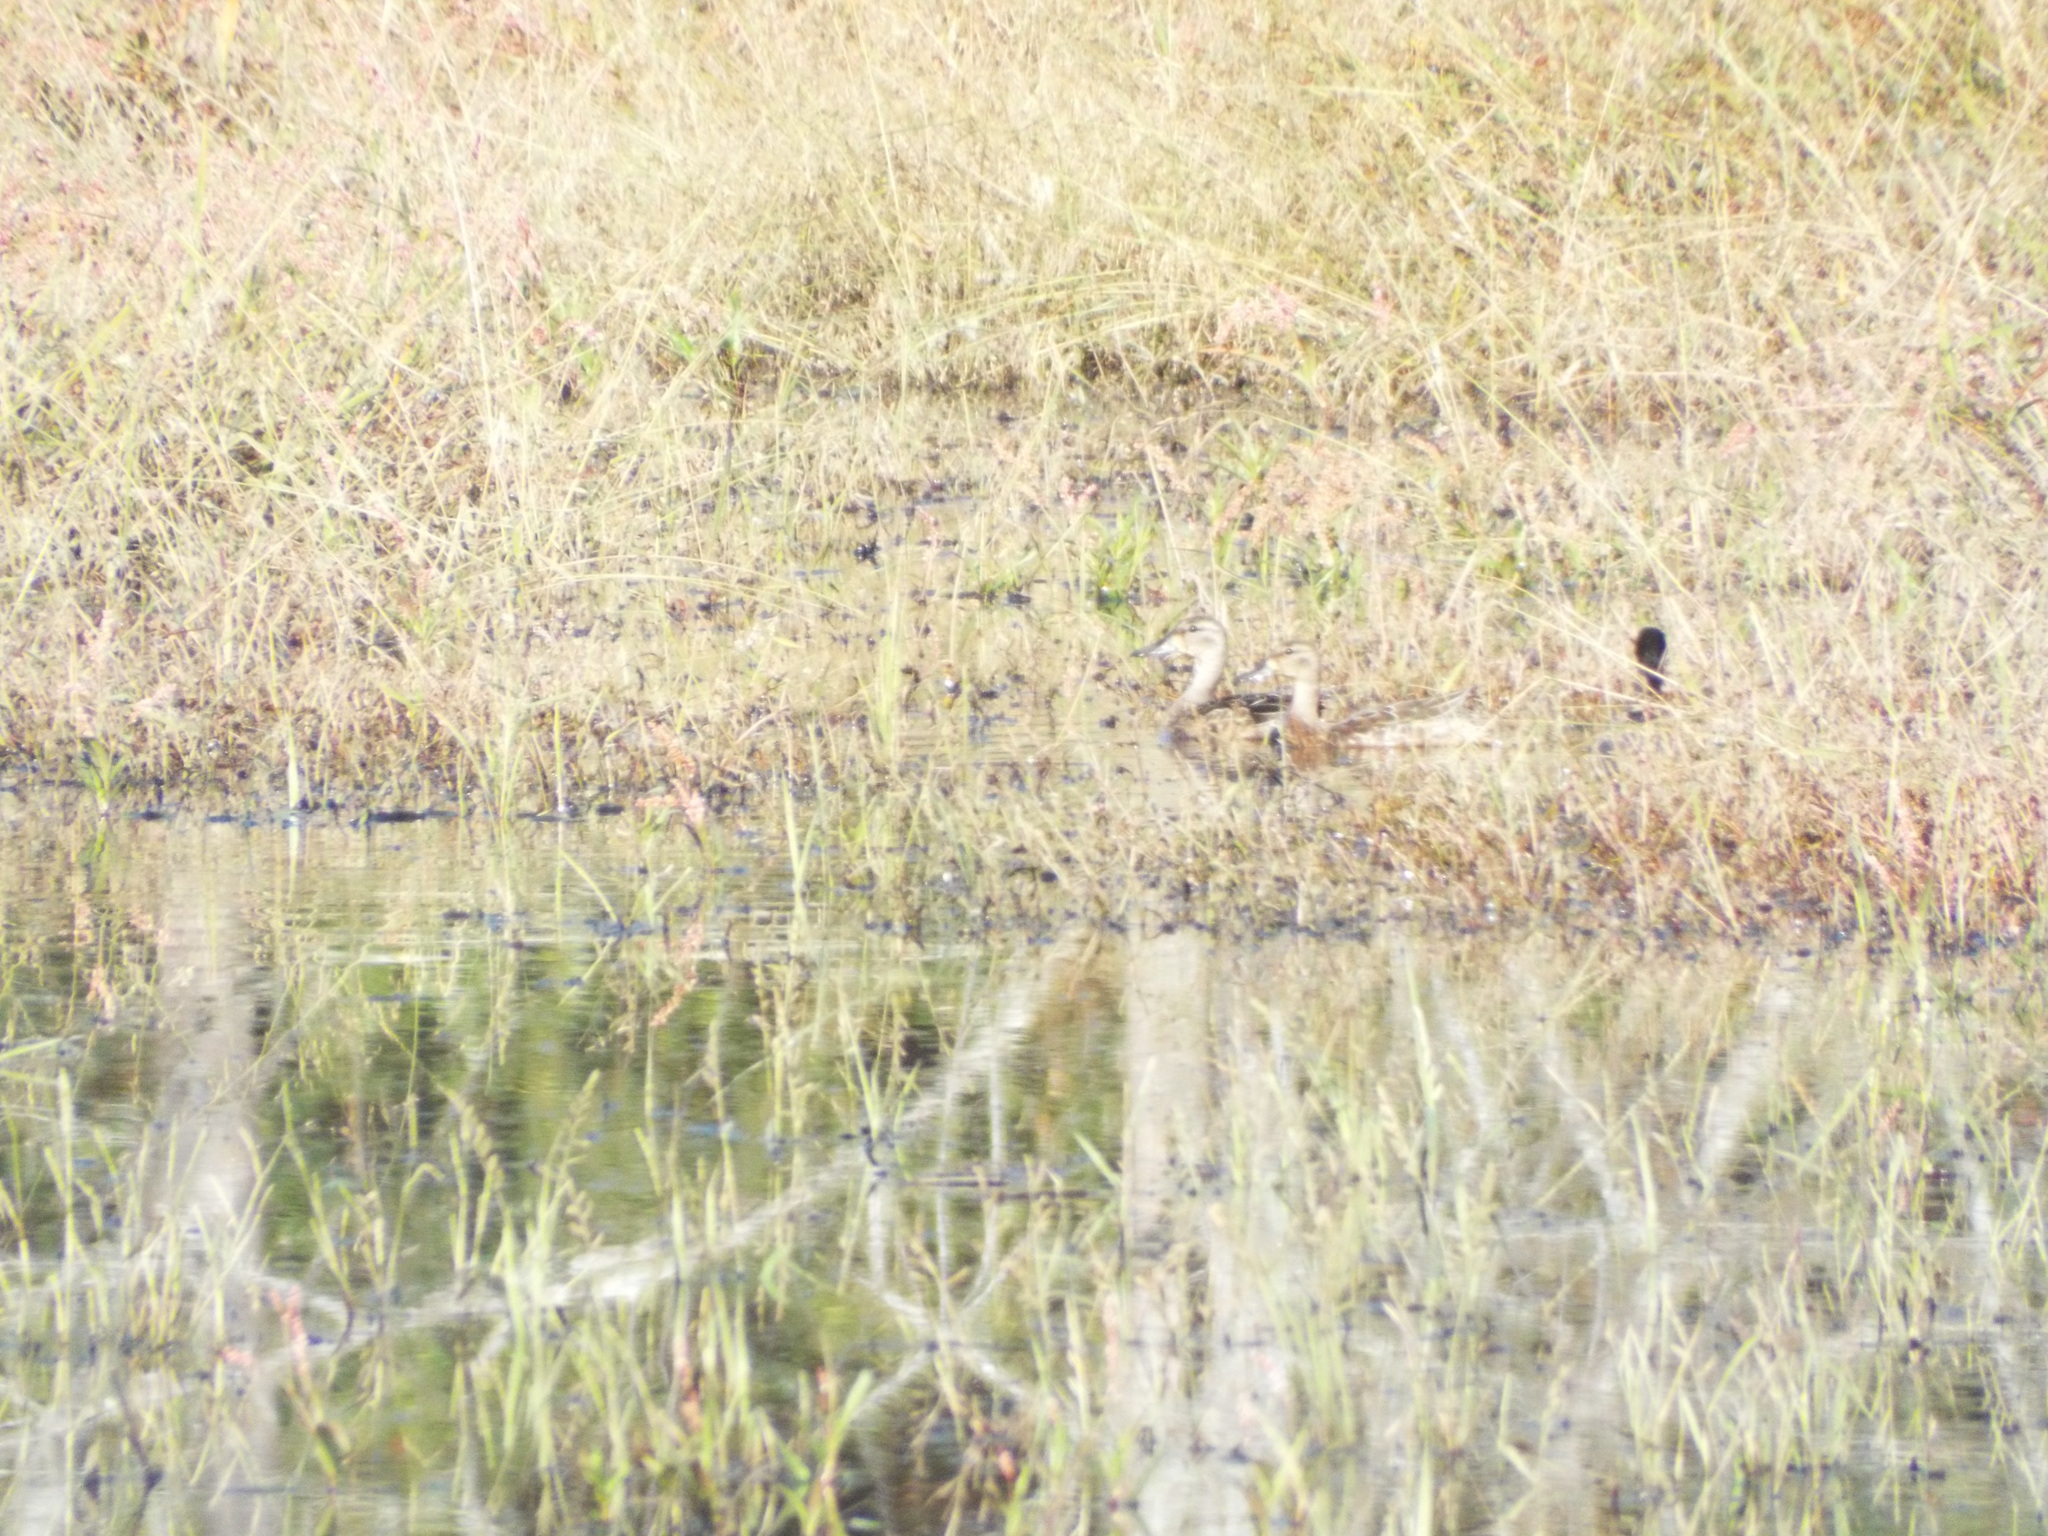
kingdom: Animalia
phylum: Chordata
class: Aves
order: Anseriformes
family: Anatidae
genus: Spatula
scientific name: Spatula discors
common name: Blue-winged teal
